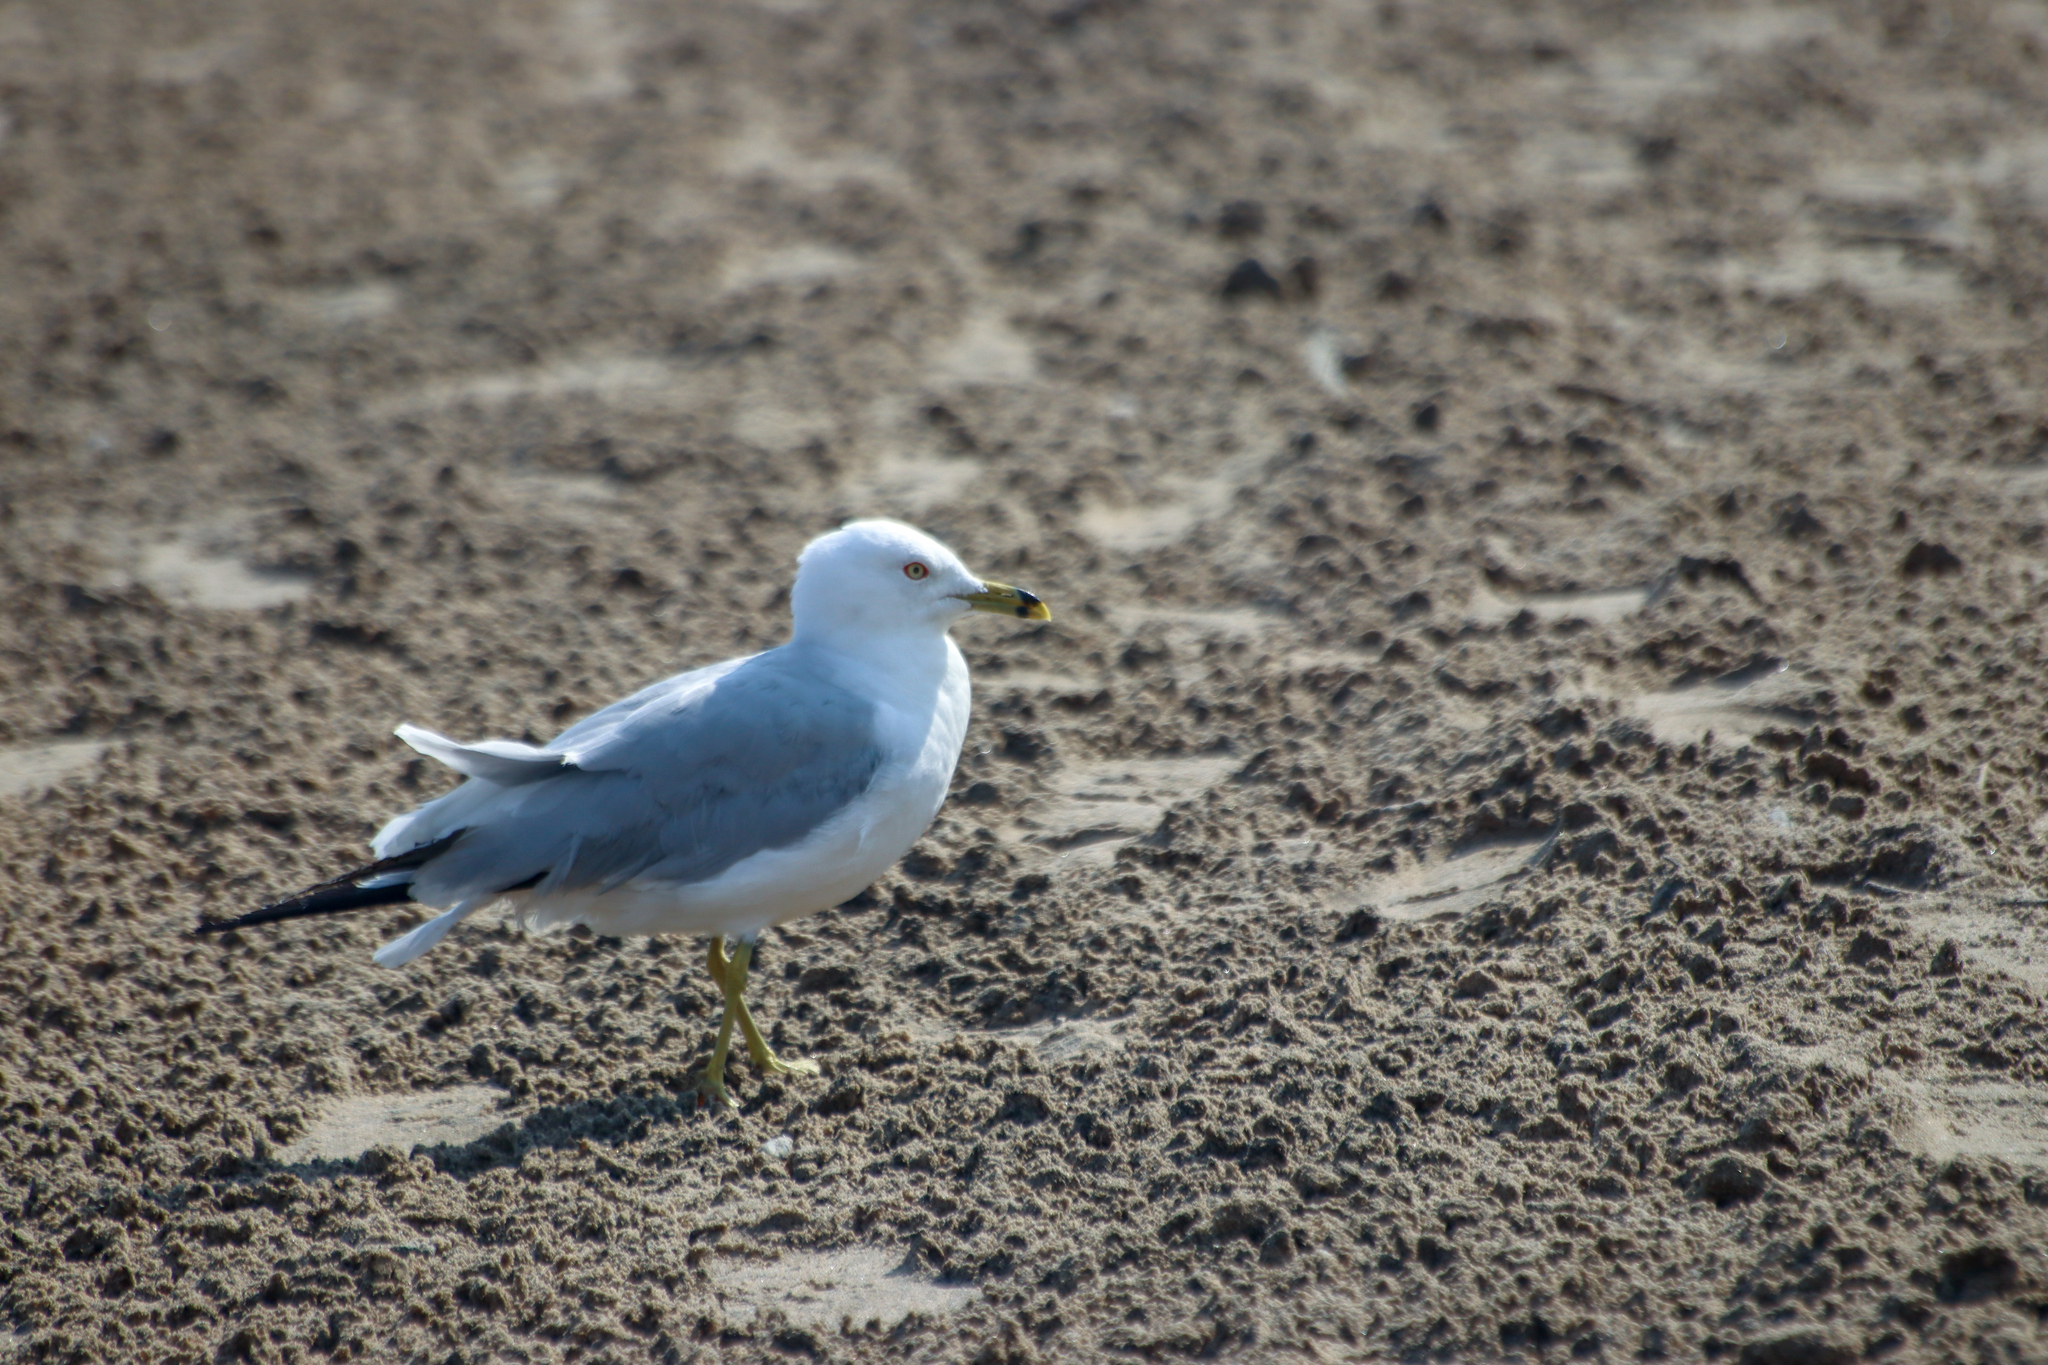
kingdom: Animalia
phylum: Chordata
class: Aves
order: Charadriiformes
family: Laridae
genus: Larus
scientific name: Larus delawarensis
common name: Ring-billed gull
